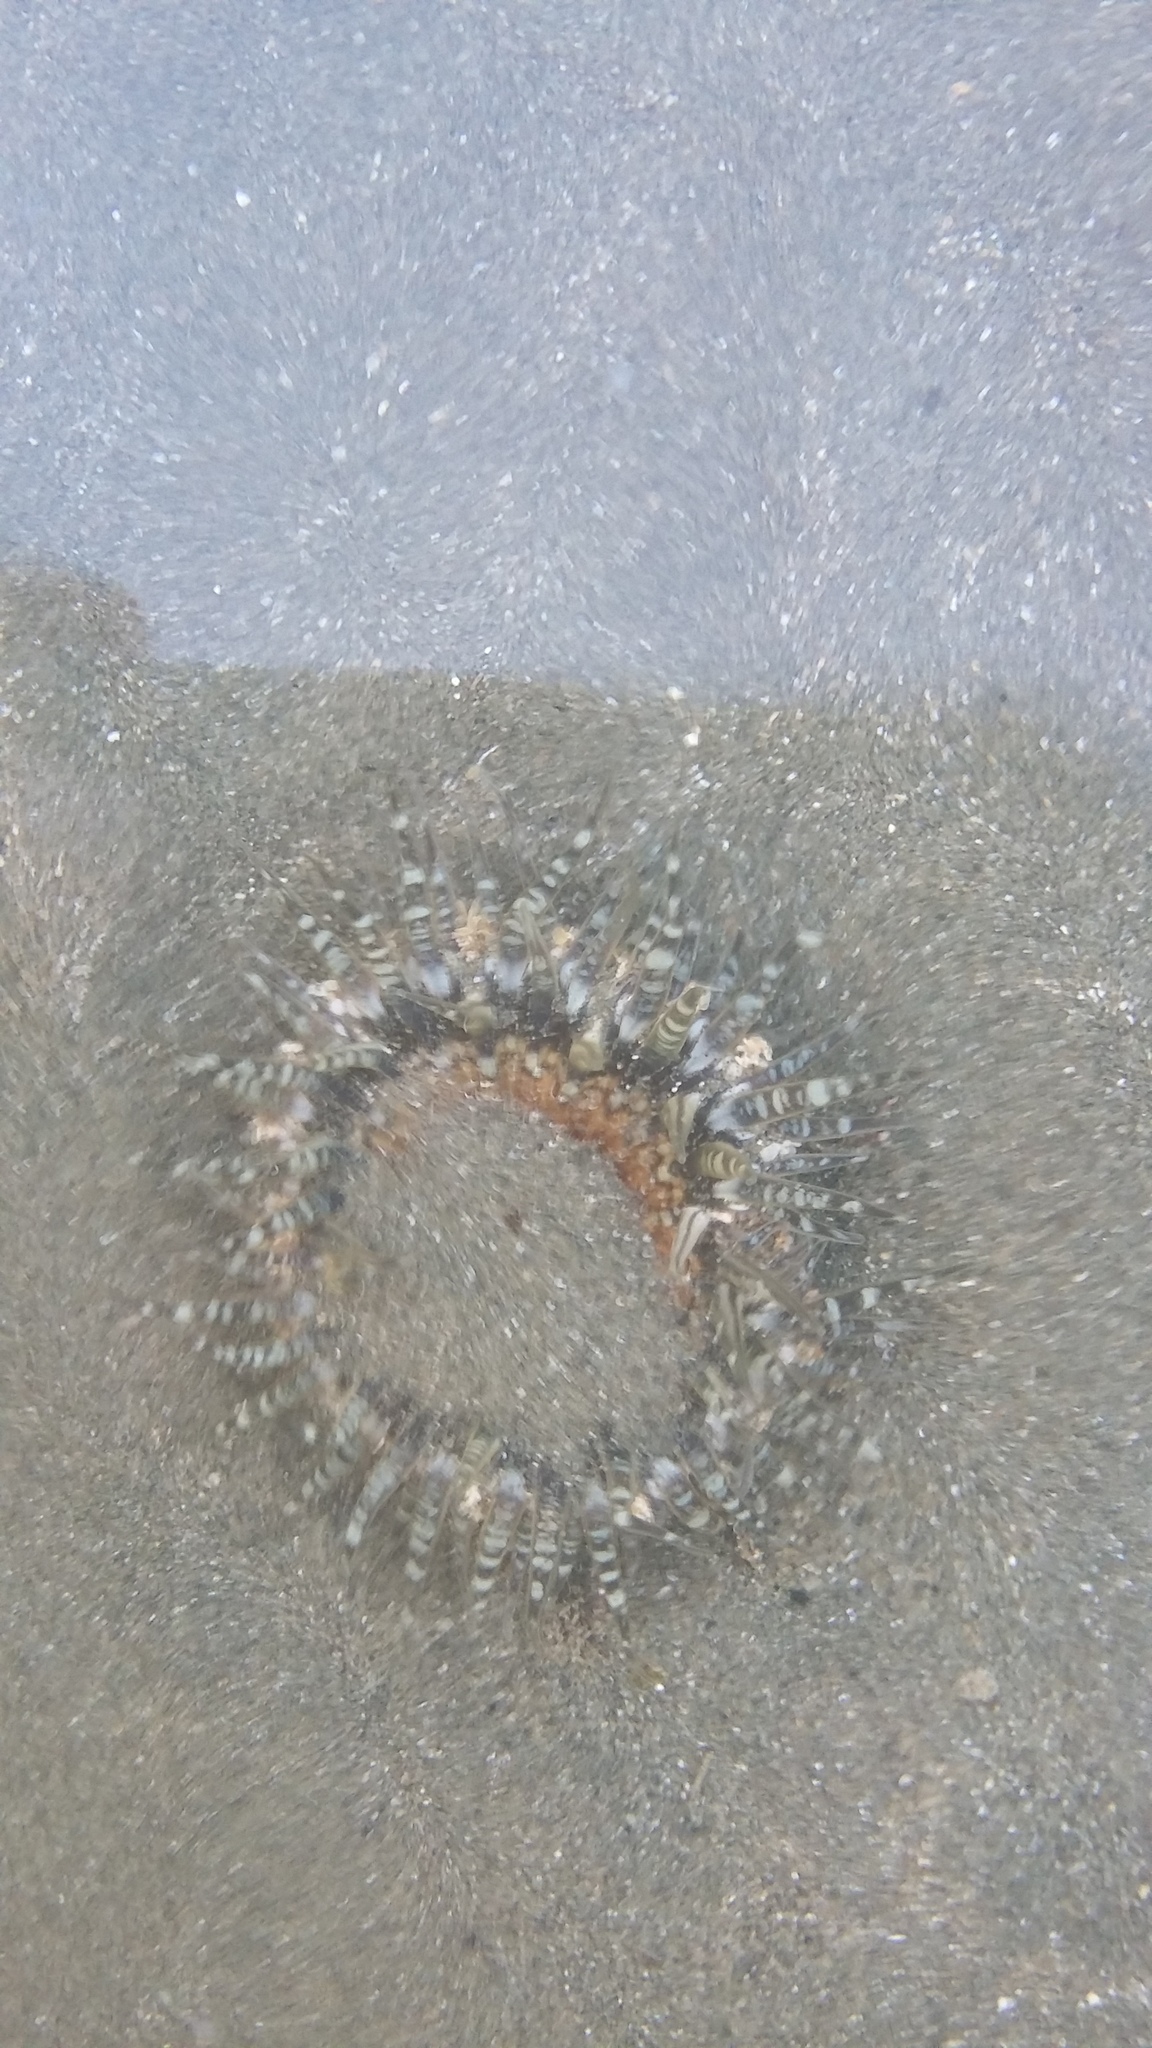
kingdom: Animalia
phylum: Cnidaria
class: Anthozoa
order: Actiniaria
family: Actiniidae
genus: Oulactis
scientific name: Oulactis muscosa
